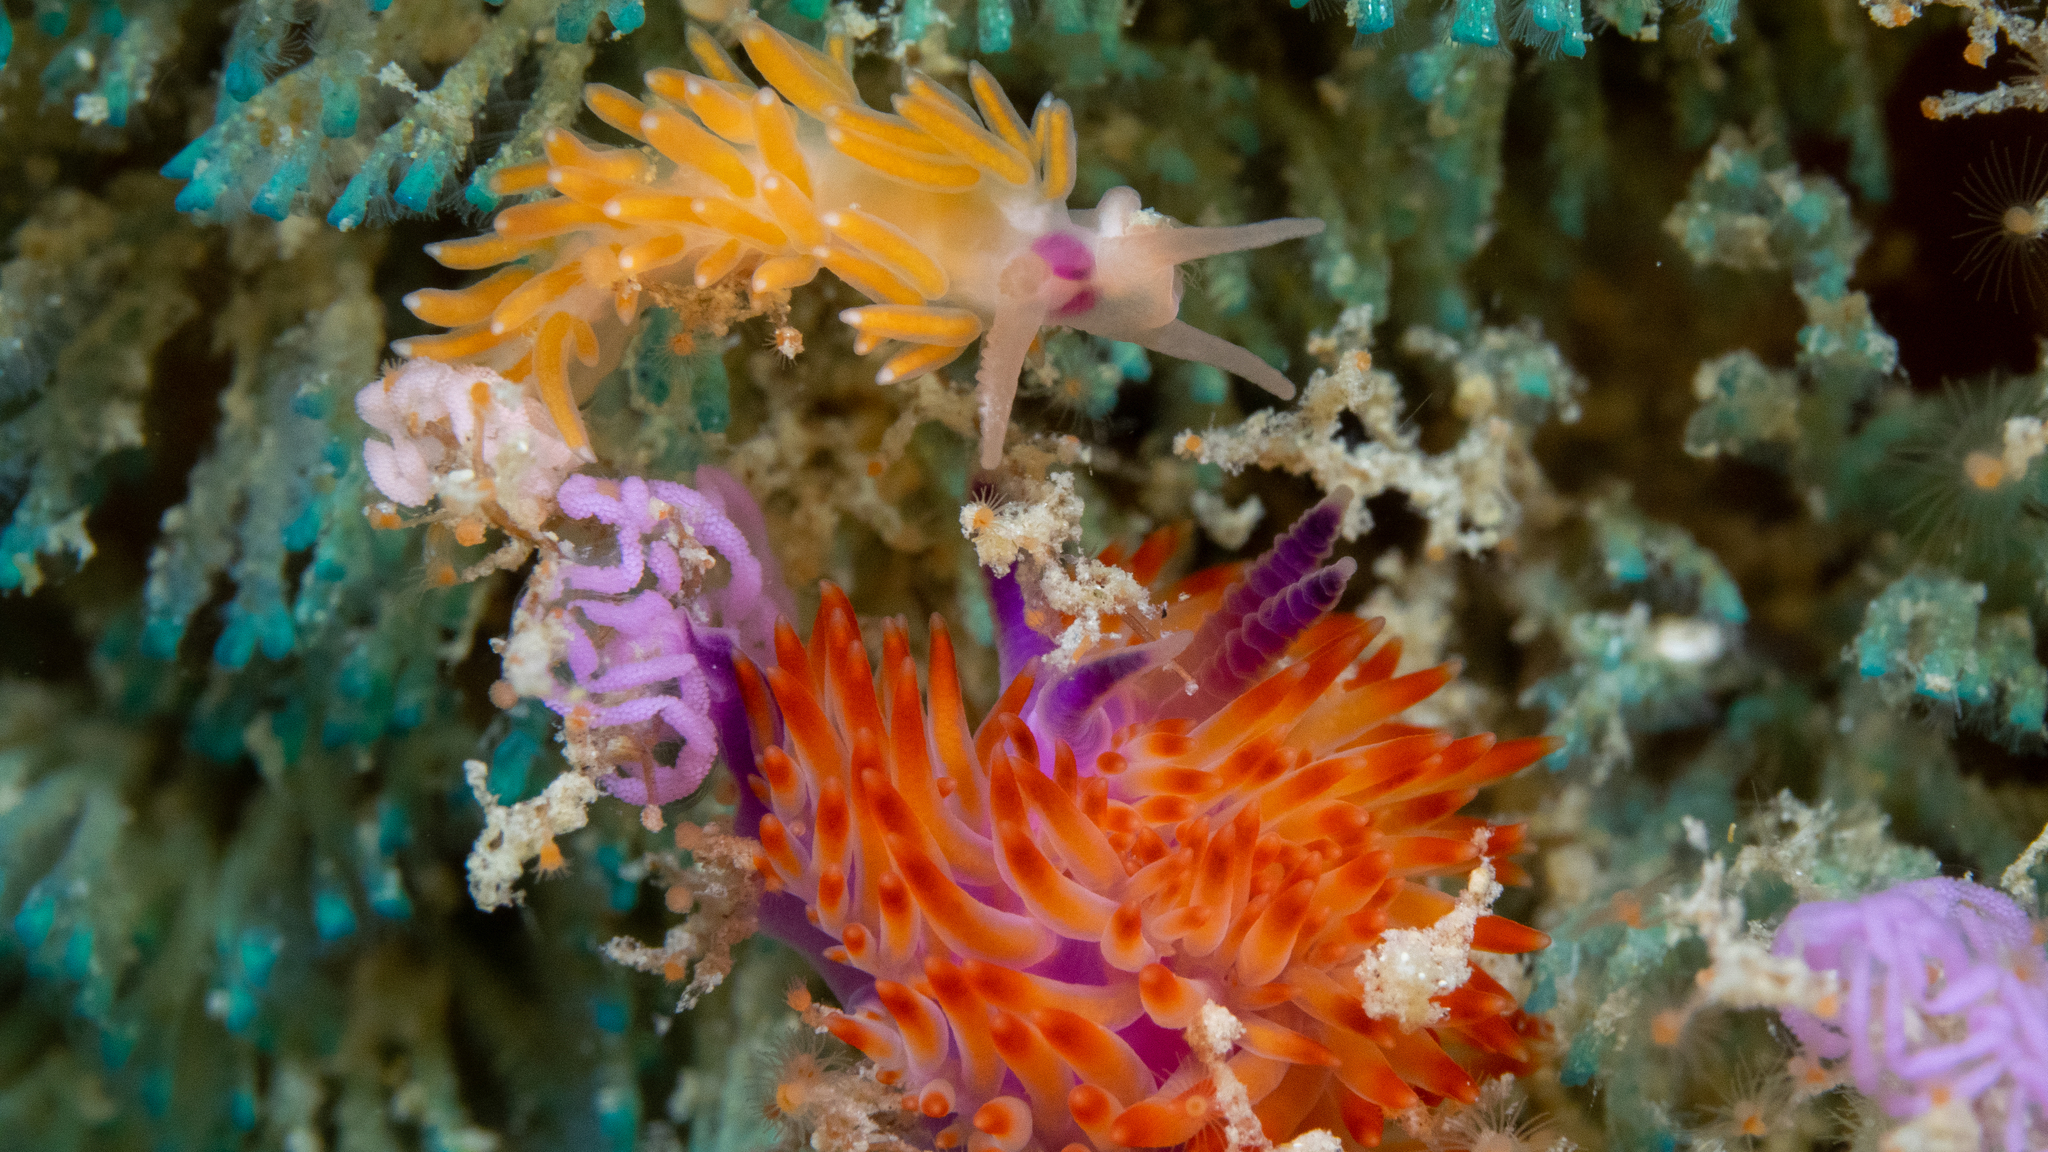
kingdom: Animalia
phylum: Mollusca
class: Gastropoda
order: Nudibranchia
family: Flabellinidae
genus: Coryphellina
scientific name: Coryphellina poenicia
